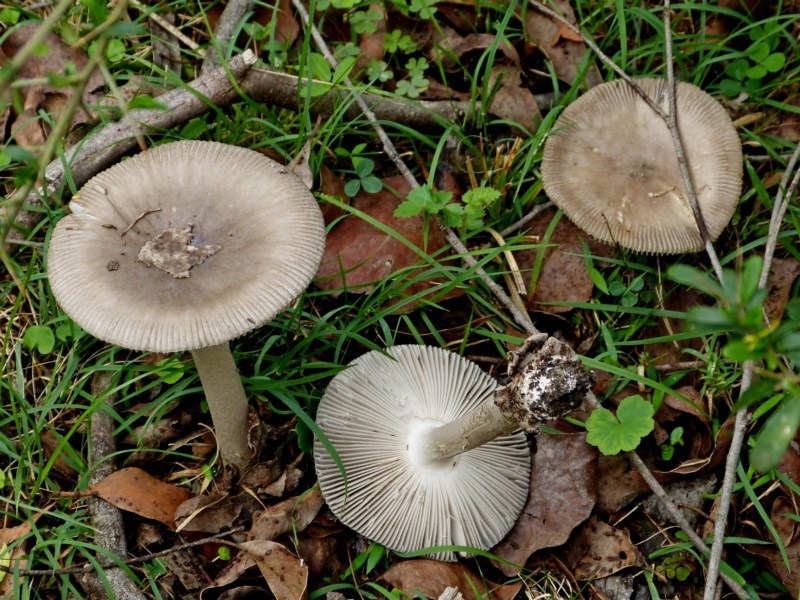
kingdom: Fungi
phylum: Basidiomycota
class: Agaricomycetes
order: Agaricales
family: Amanitaceae
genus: Amanita
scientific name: Amanita cheelii
